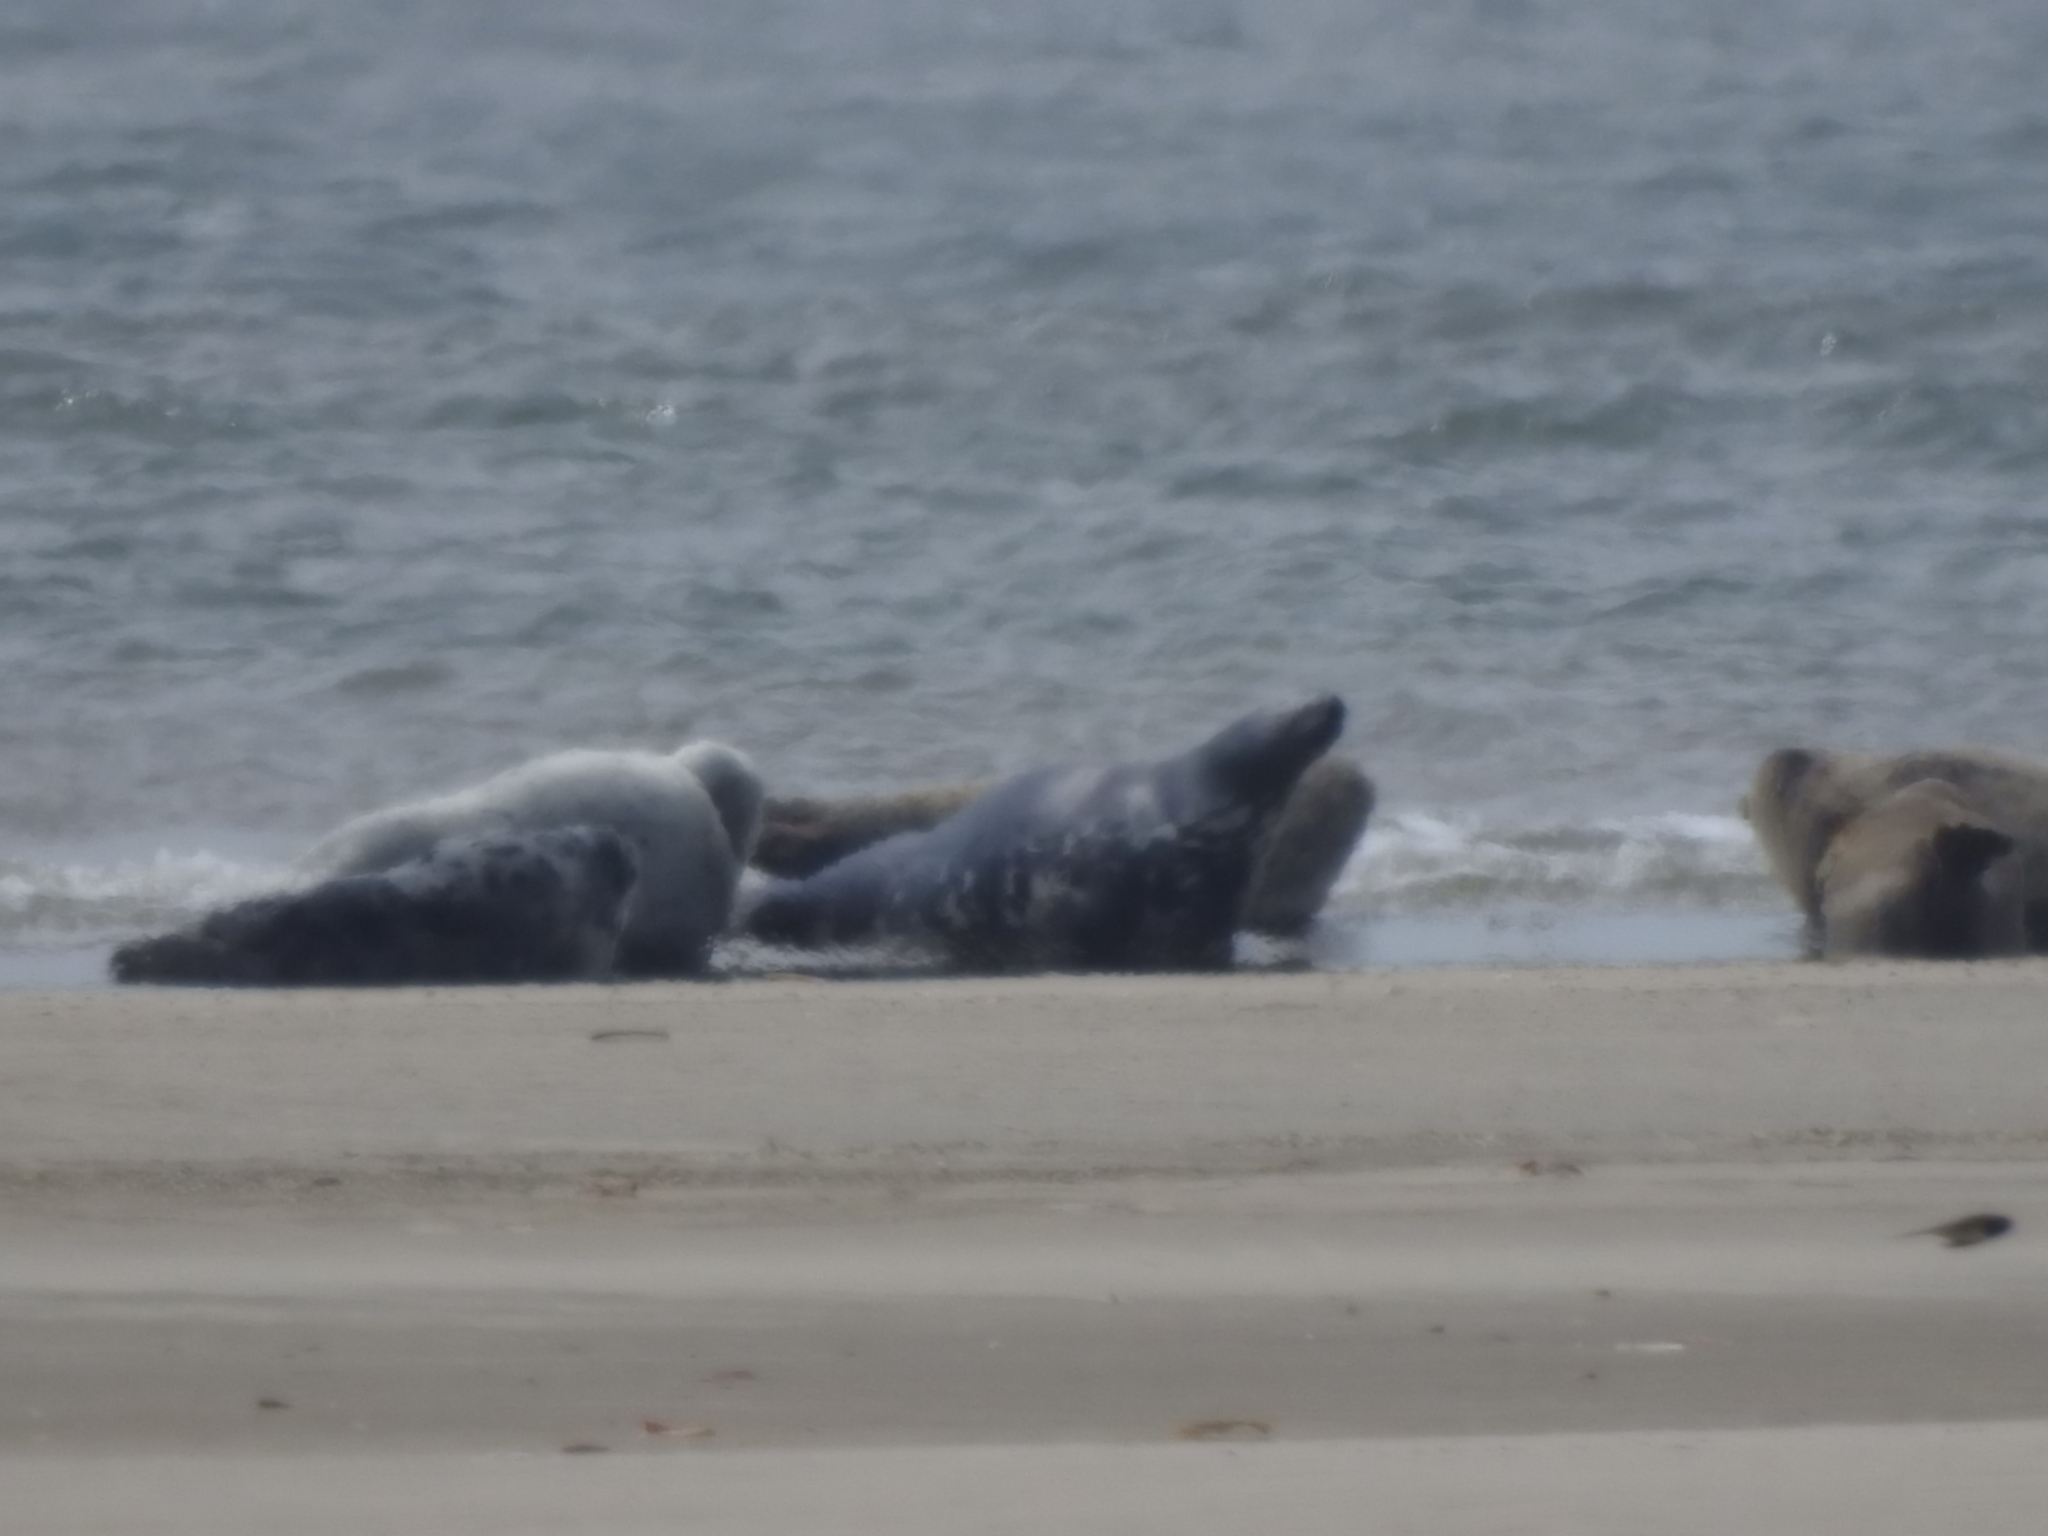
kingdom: Animalia
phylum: Chordata
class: Mammalia
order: Carnivora
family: Phocidae
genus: Halichoerus
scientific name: Halichoerus grypus
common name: Grey seal
